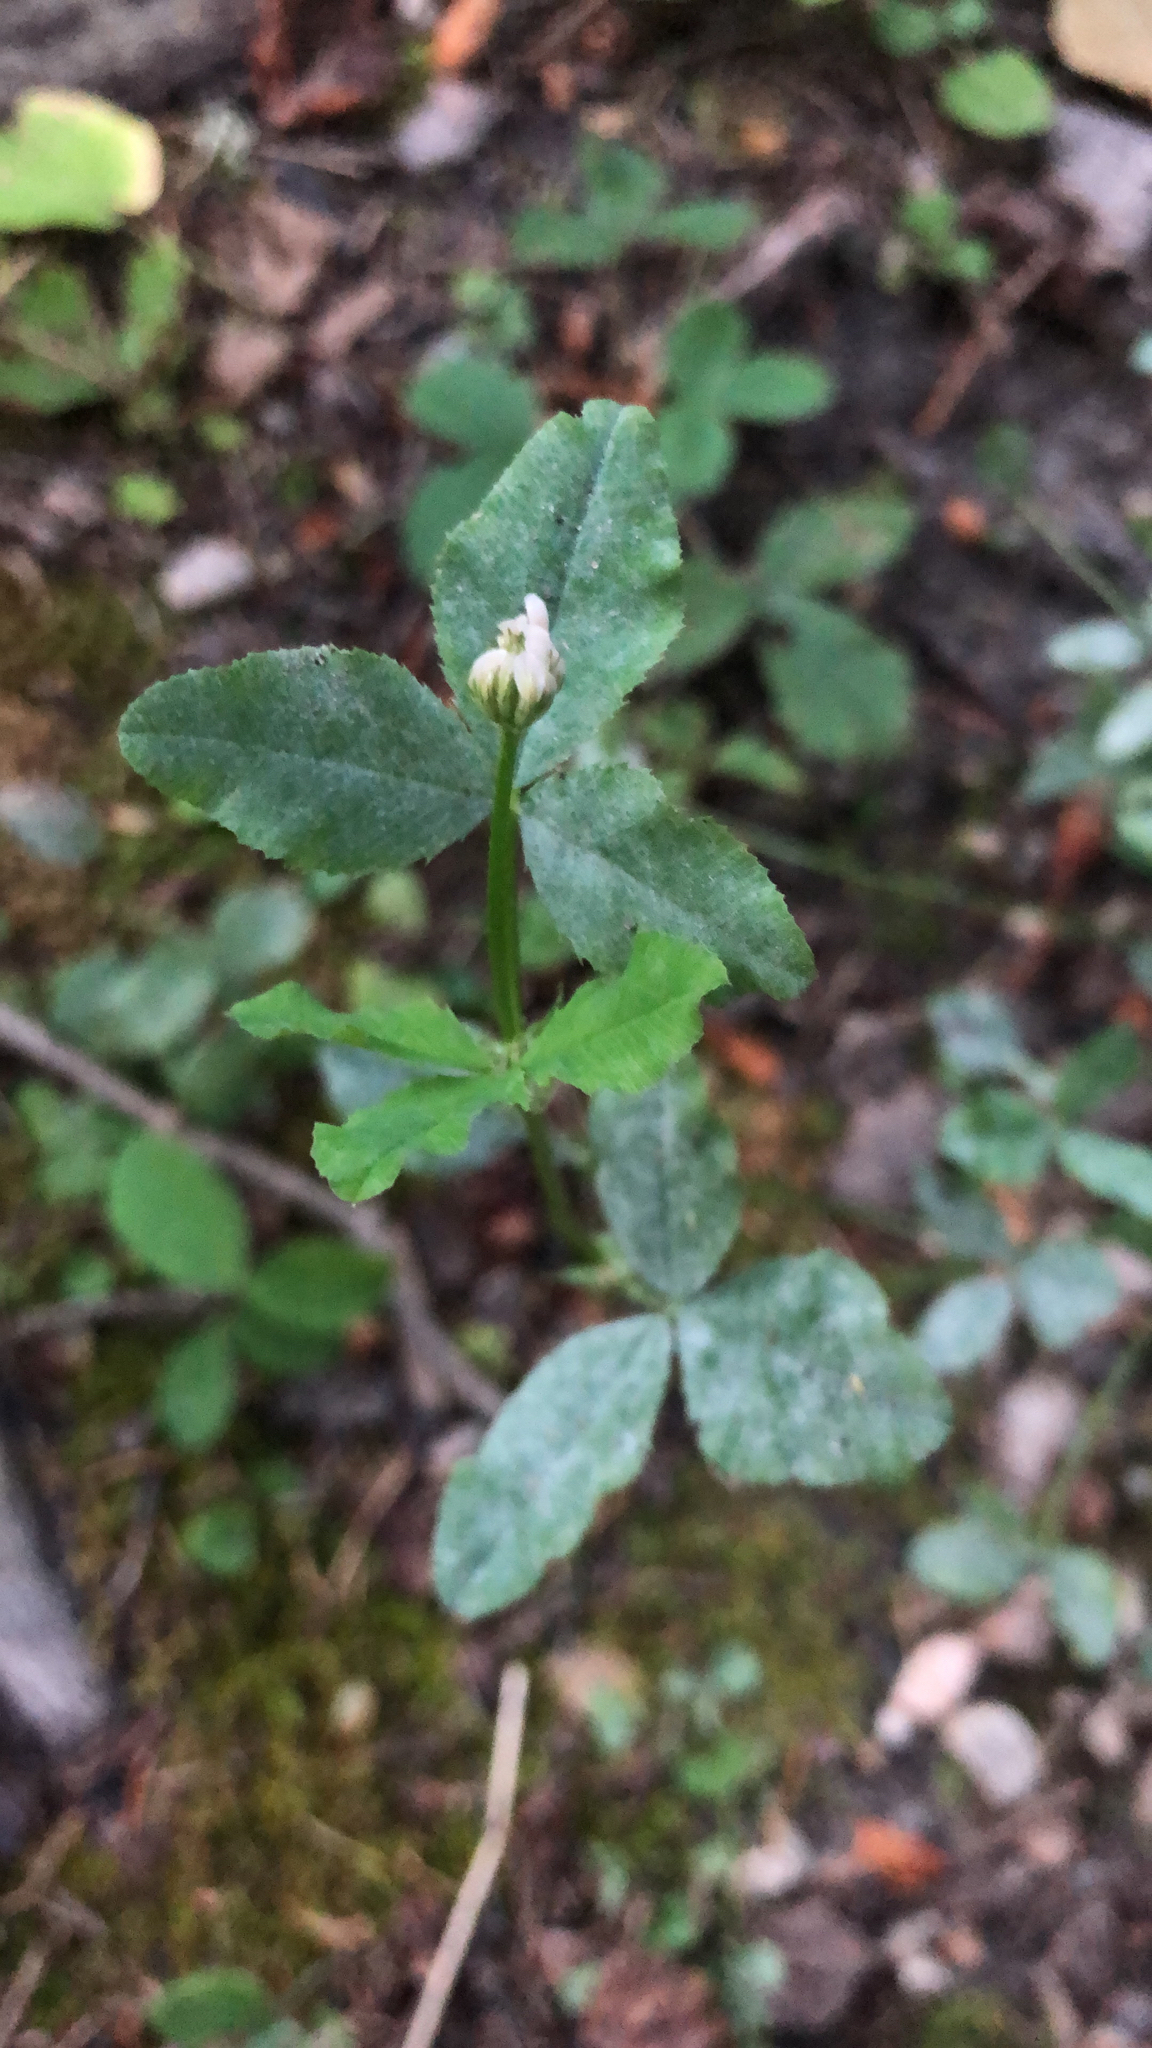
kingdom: Plantae
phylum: Tracheophyta
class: Magnoliopsida
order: Fabales
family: Fabaceae
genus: Trifolium
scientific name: Trifolium hybridum
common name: Alsike clover
